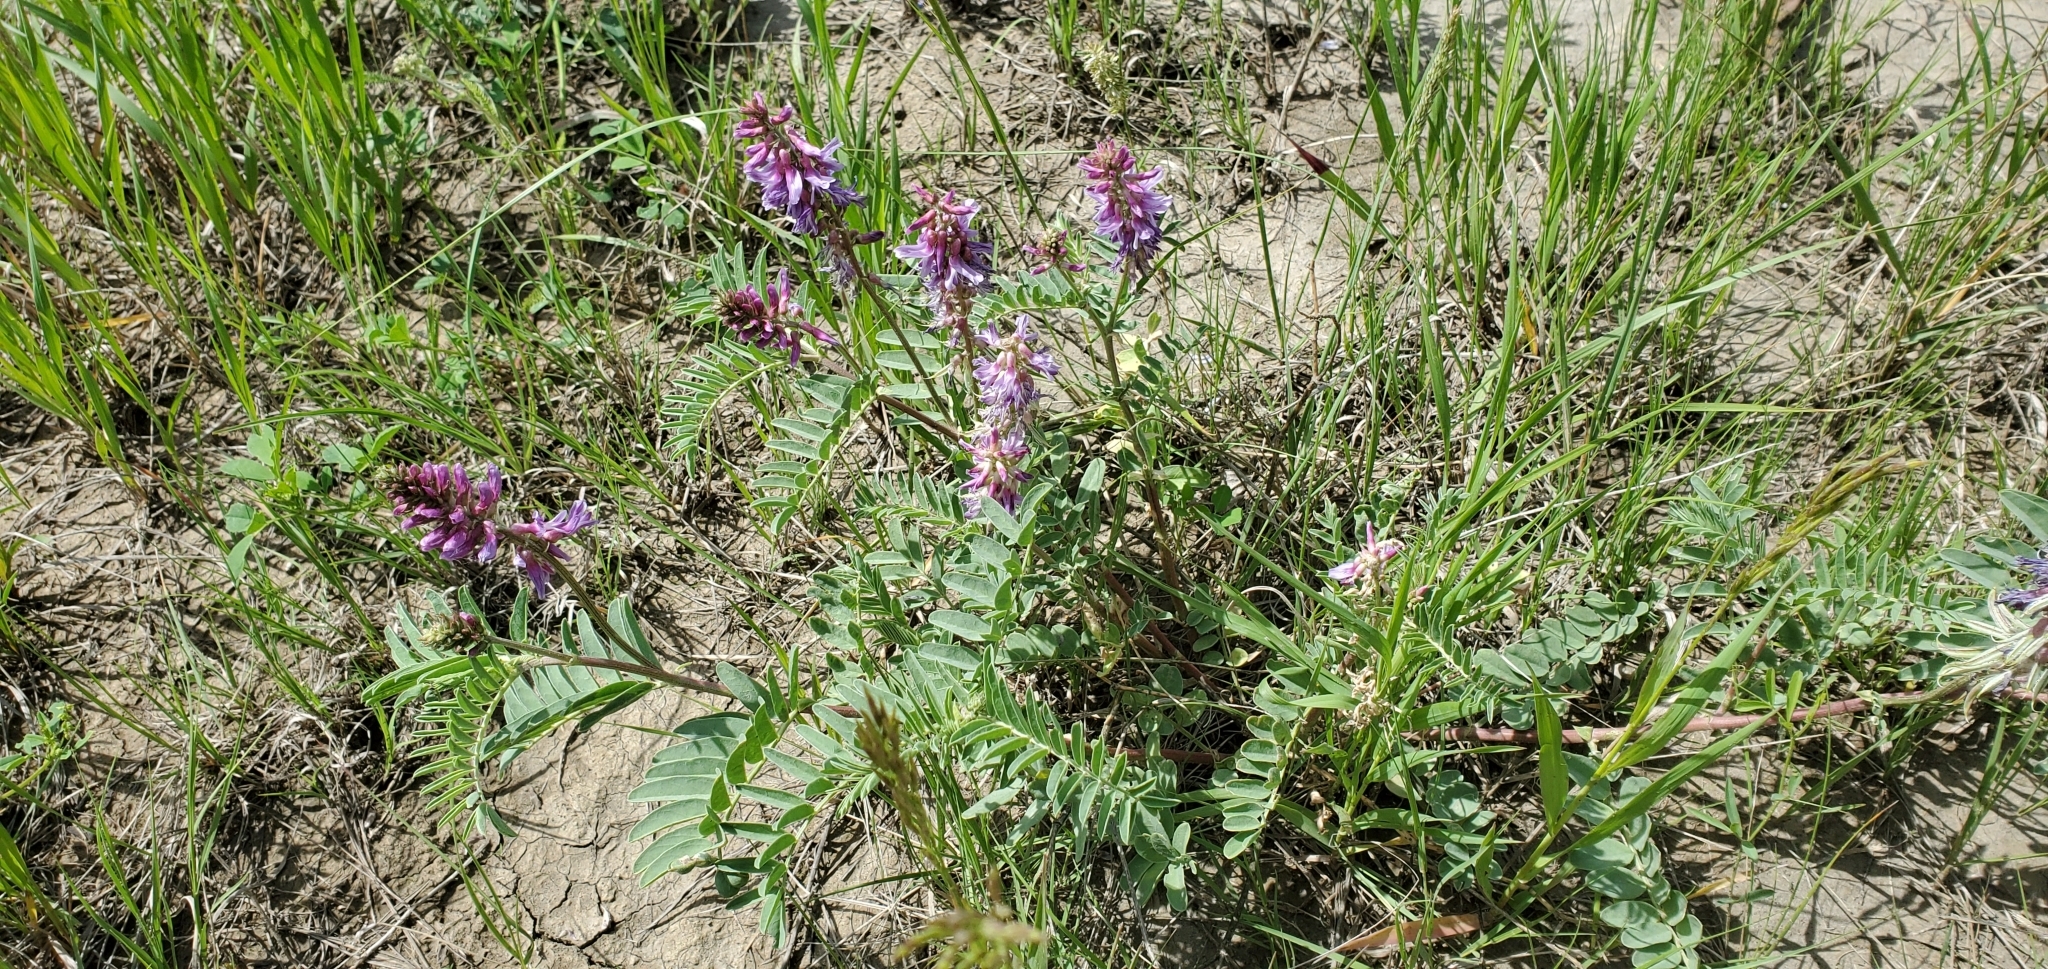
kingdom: Plantae
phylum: Tracheophyta
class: Magnoliopsida
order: Fabales
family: Fabaceae
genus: Astragalus
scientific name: Astragalus bisulcatus
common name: Two-groove milk-vetch
